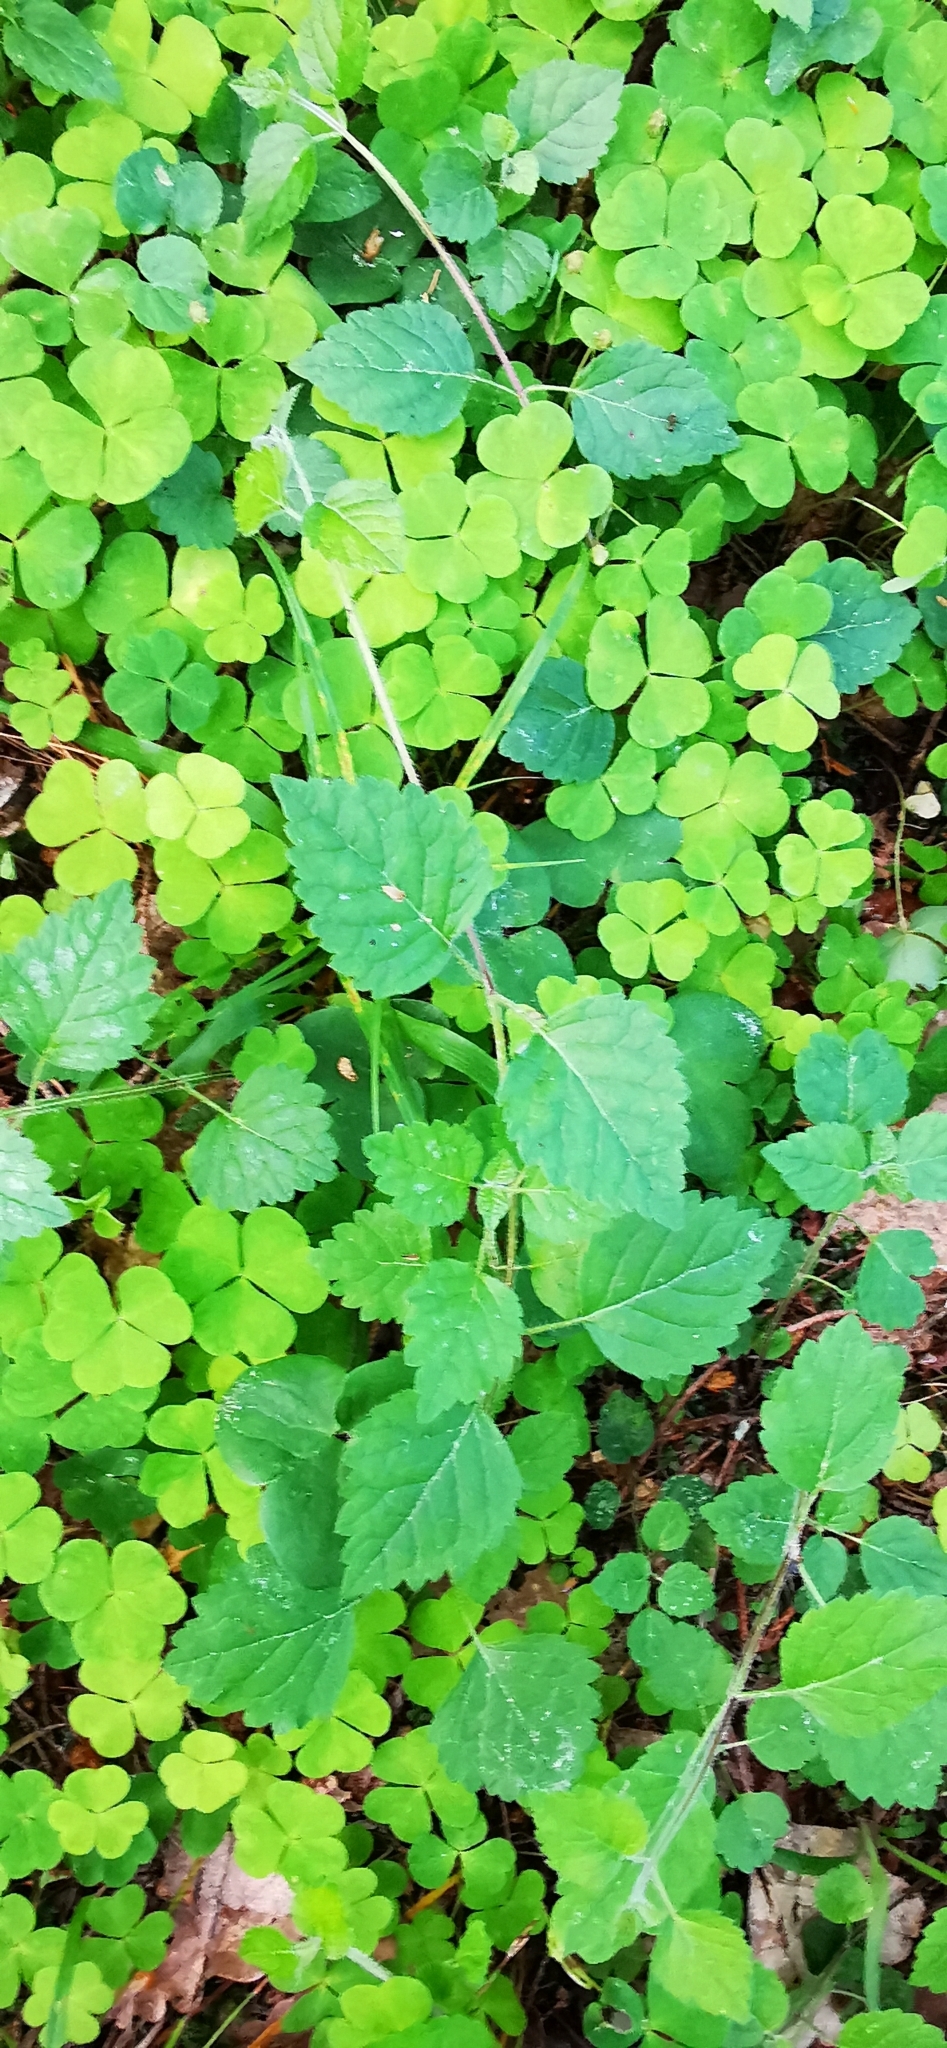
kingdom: Plantae
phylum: Tracheophyta
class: Magnoliopsida
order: Lamiales
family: Lamiaceae
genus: Lamium
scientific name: Lamium galeobdolon
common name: Yellow archangel
